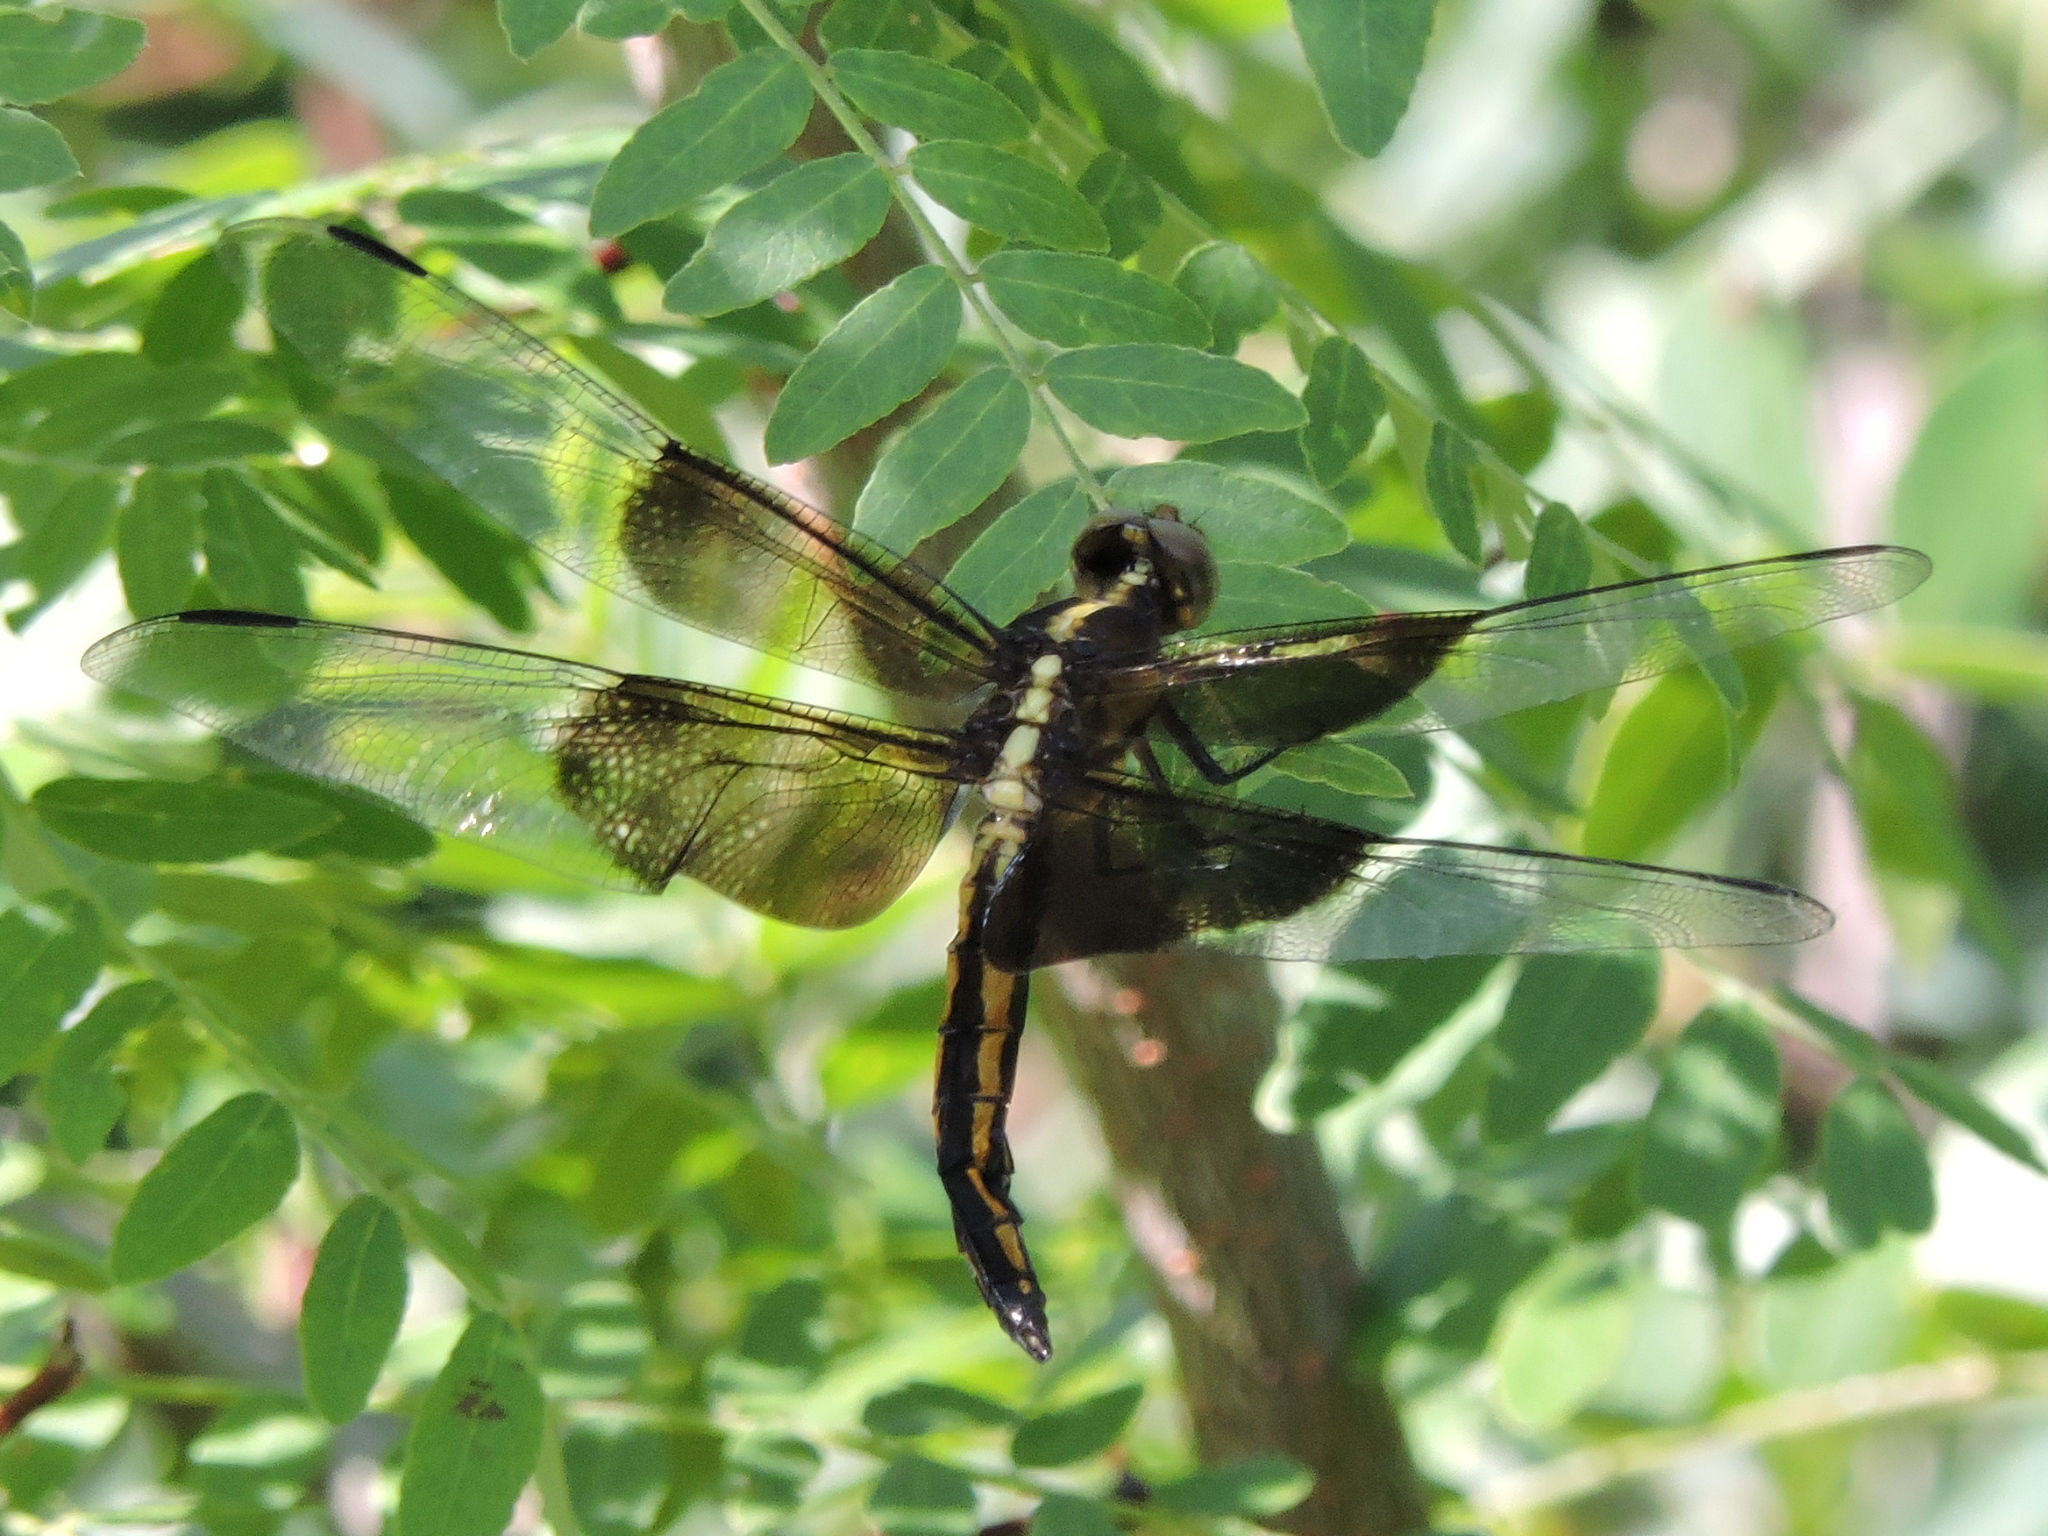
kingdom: Animalia
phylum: Arthropoda
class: Insecta
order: Odonata
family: Libellulidae
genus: Libellula
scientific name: Libellula luctuosa
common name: Widow skimmer
